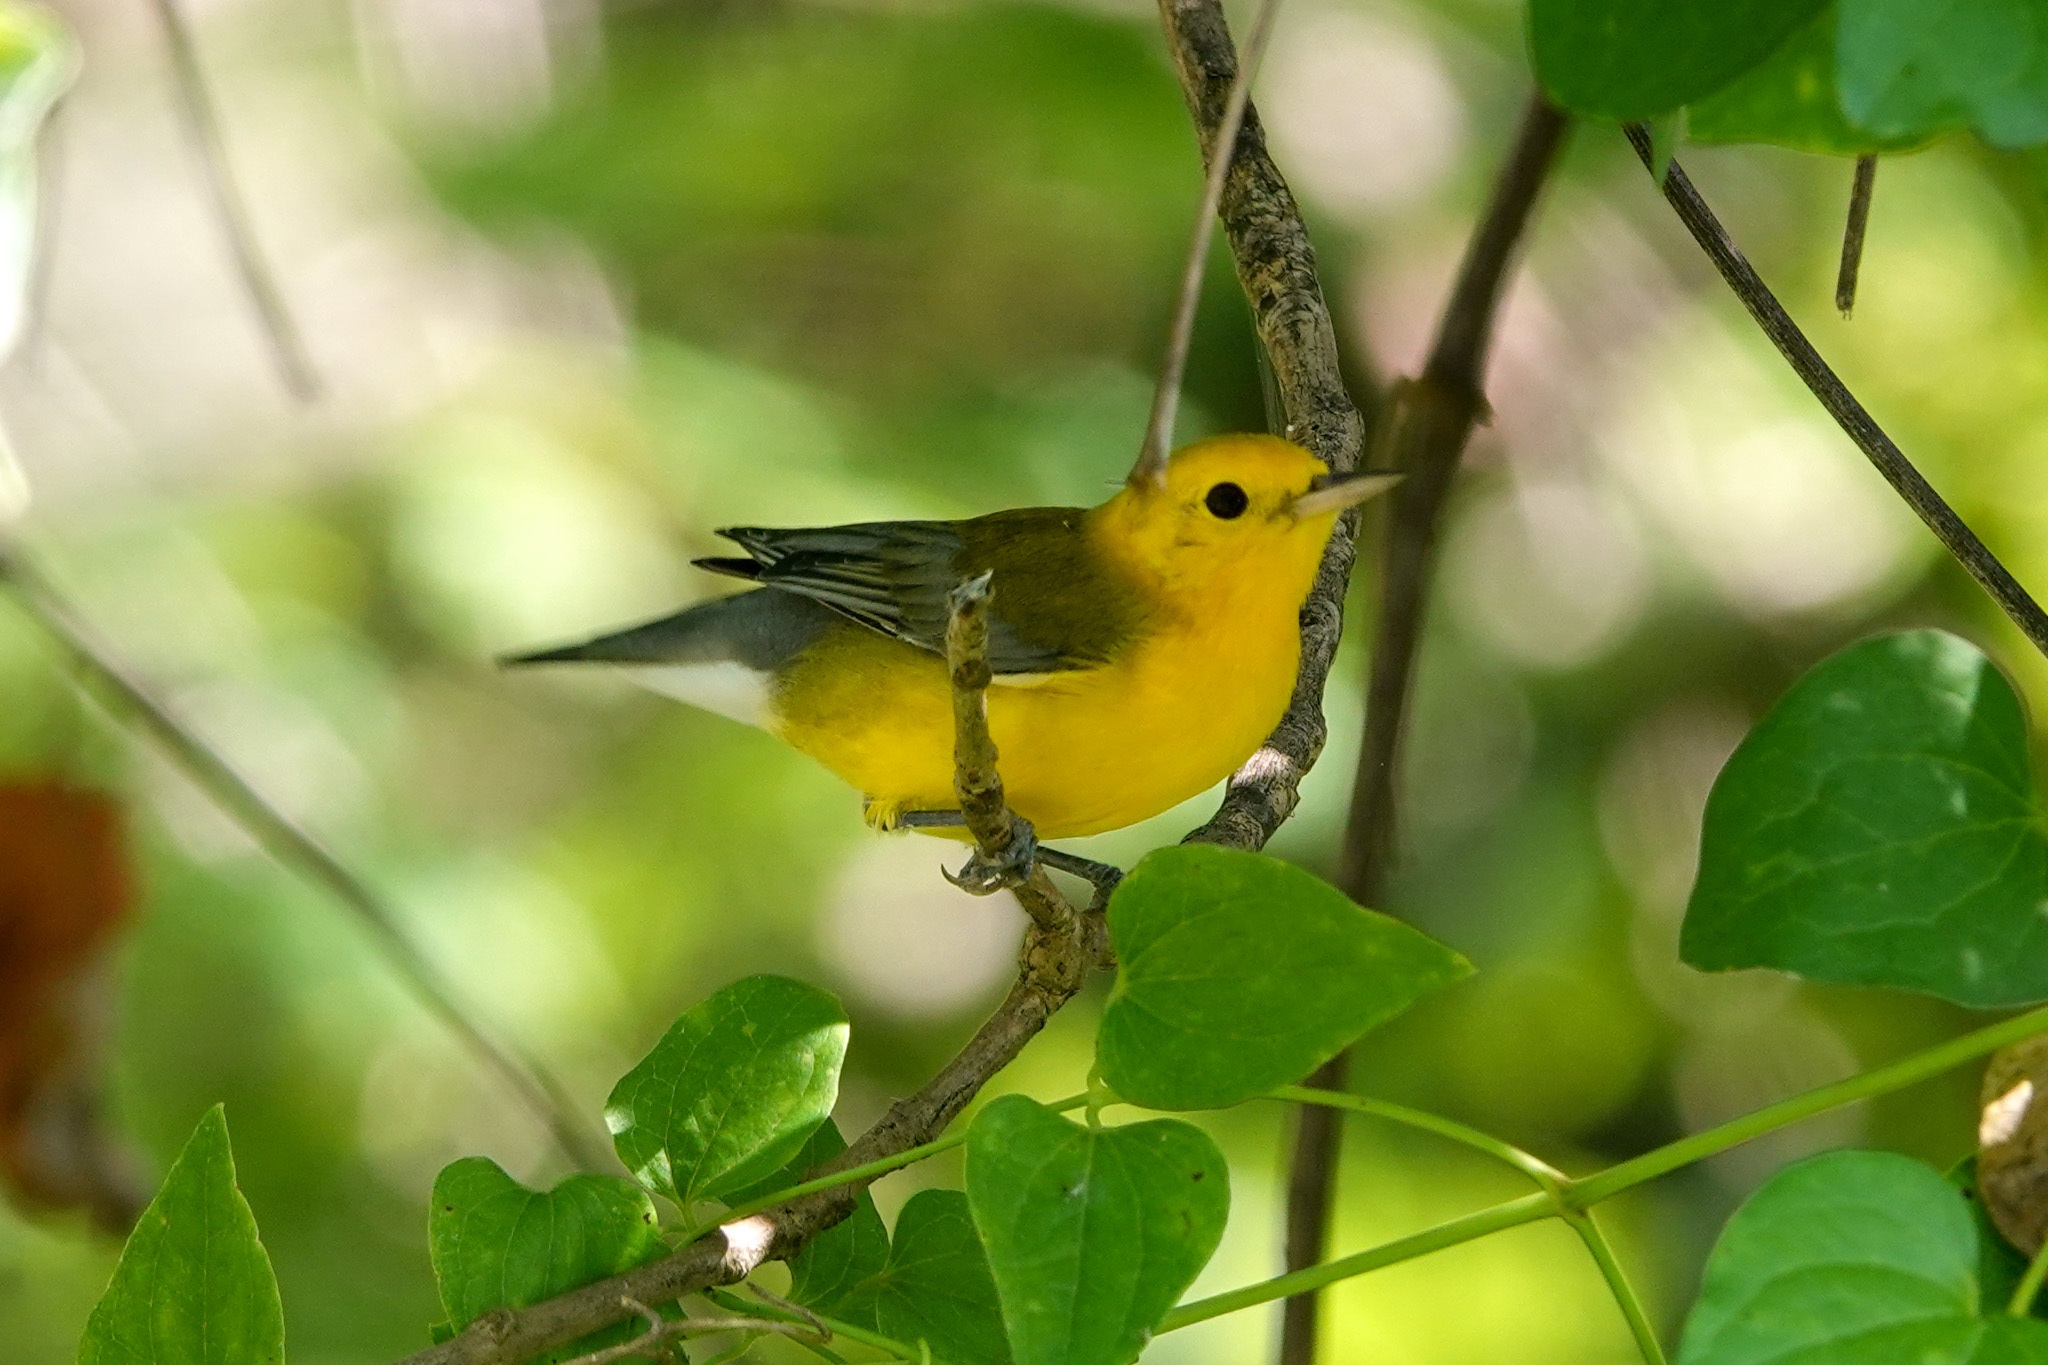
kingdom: Animalia
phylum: Chordata
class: Aves
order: Passeriformes
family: Parulidae
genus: Protonotaria
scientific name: Protonotaria citrea
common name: Prothonotary warbler
